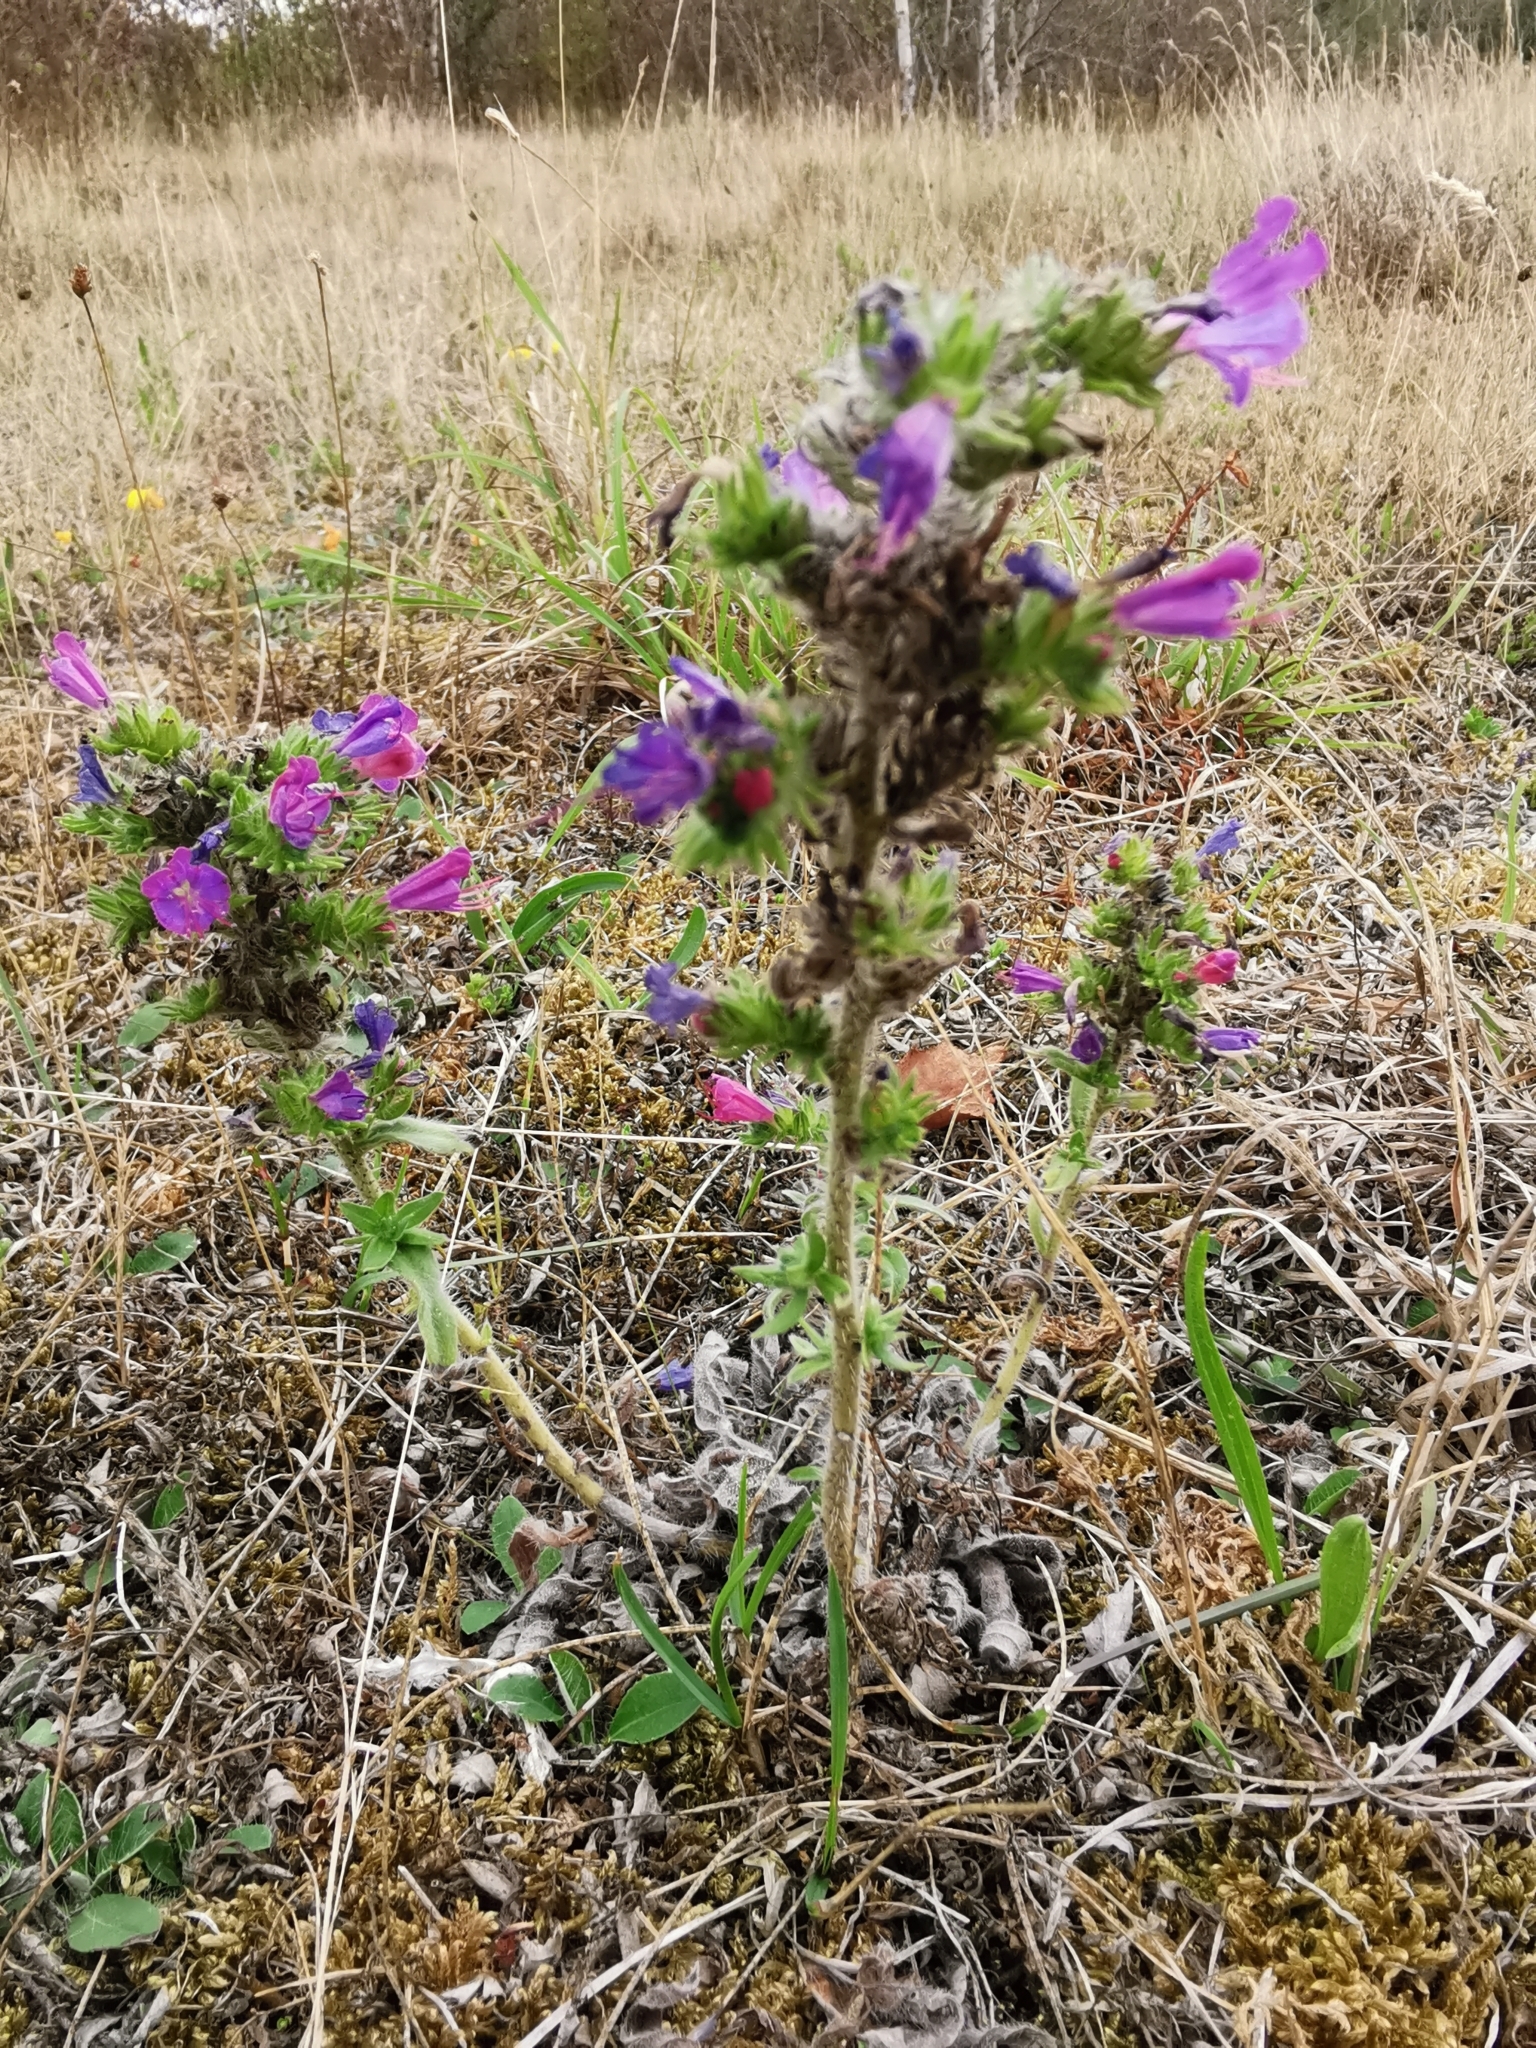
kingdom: Plantae
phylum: Tracheophyta
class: Magnoliopsida
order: Boraginales
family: Boraginaceae
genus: Echium
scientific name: Echium vulgare
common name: Common viper's bugloss
